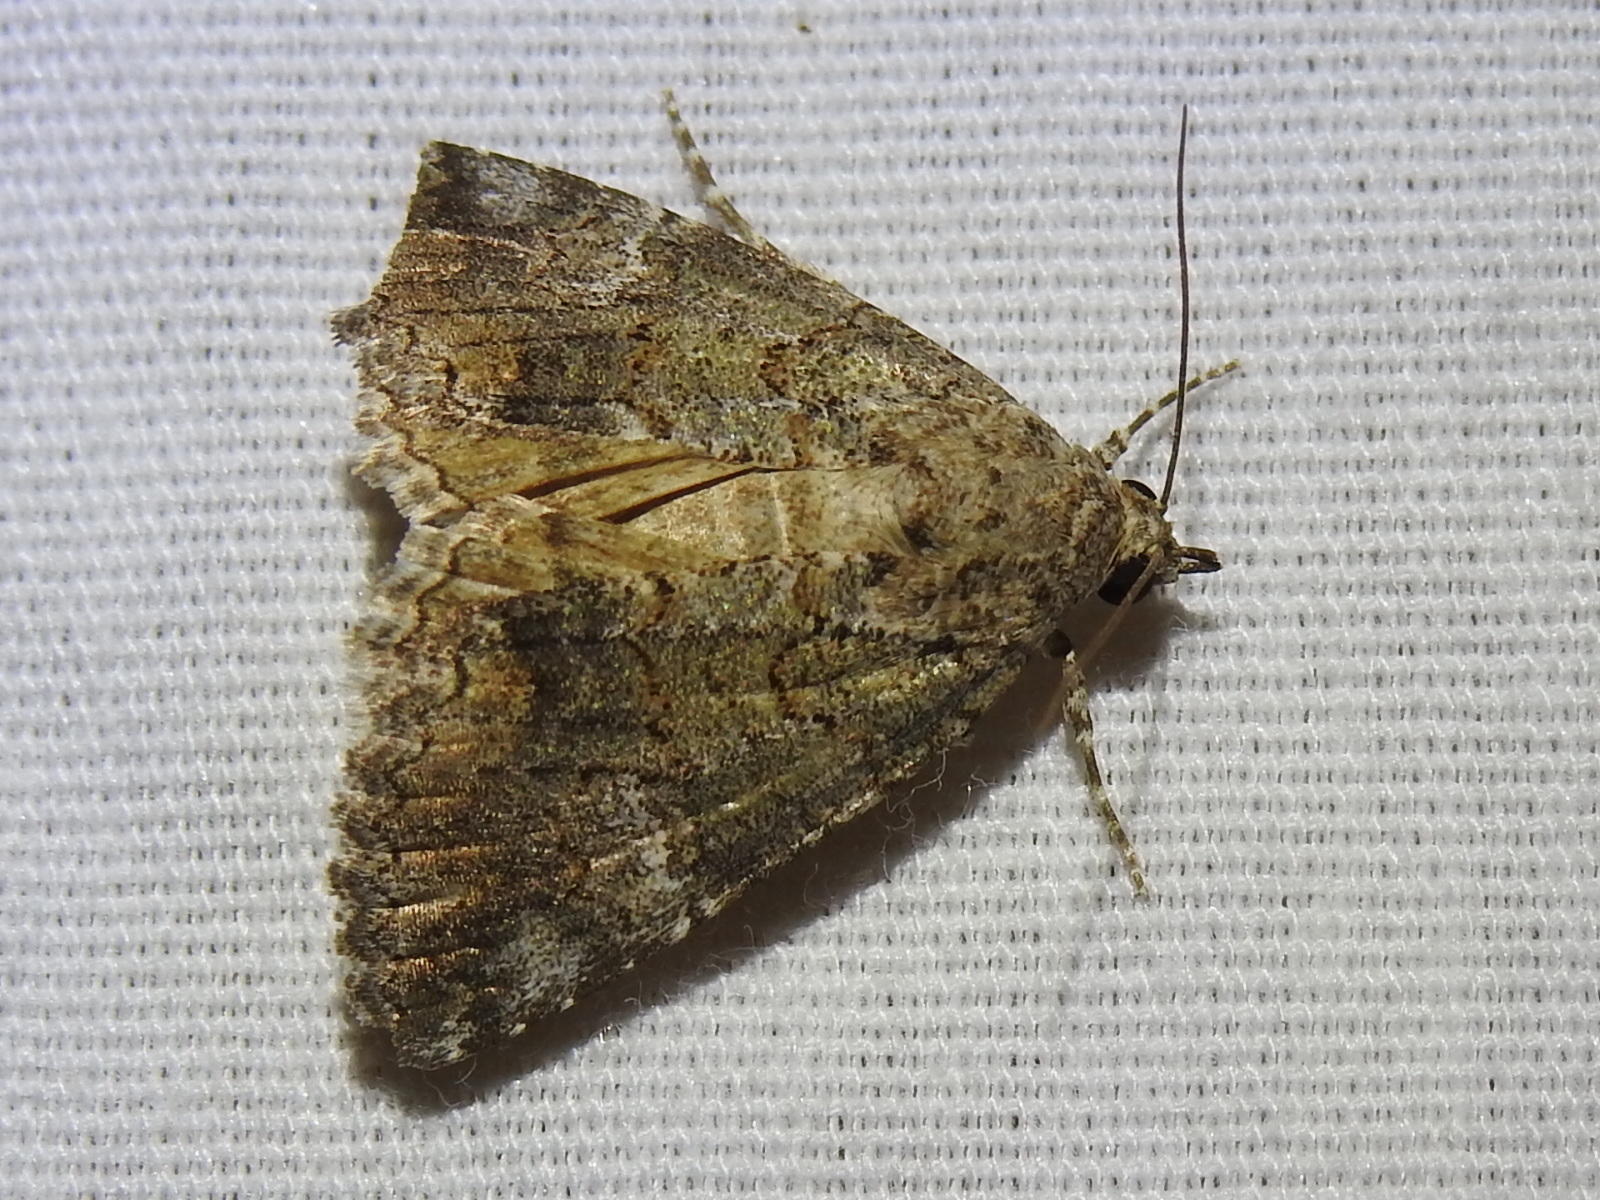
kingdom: Animalia
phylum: Arthropoda
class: Insecta
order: Lepidoptera
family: Erebidae
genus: Eubolina
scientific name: Eubolina impartialis
